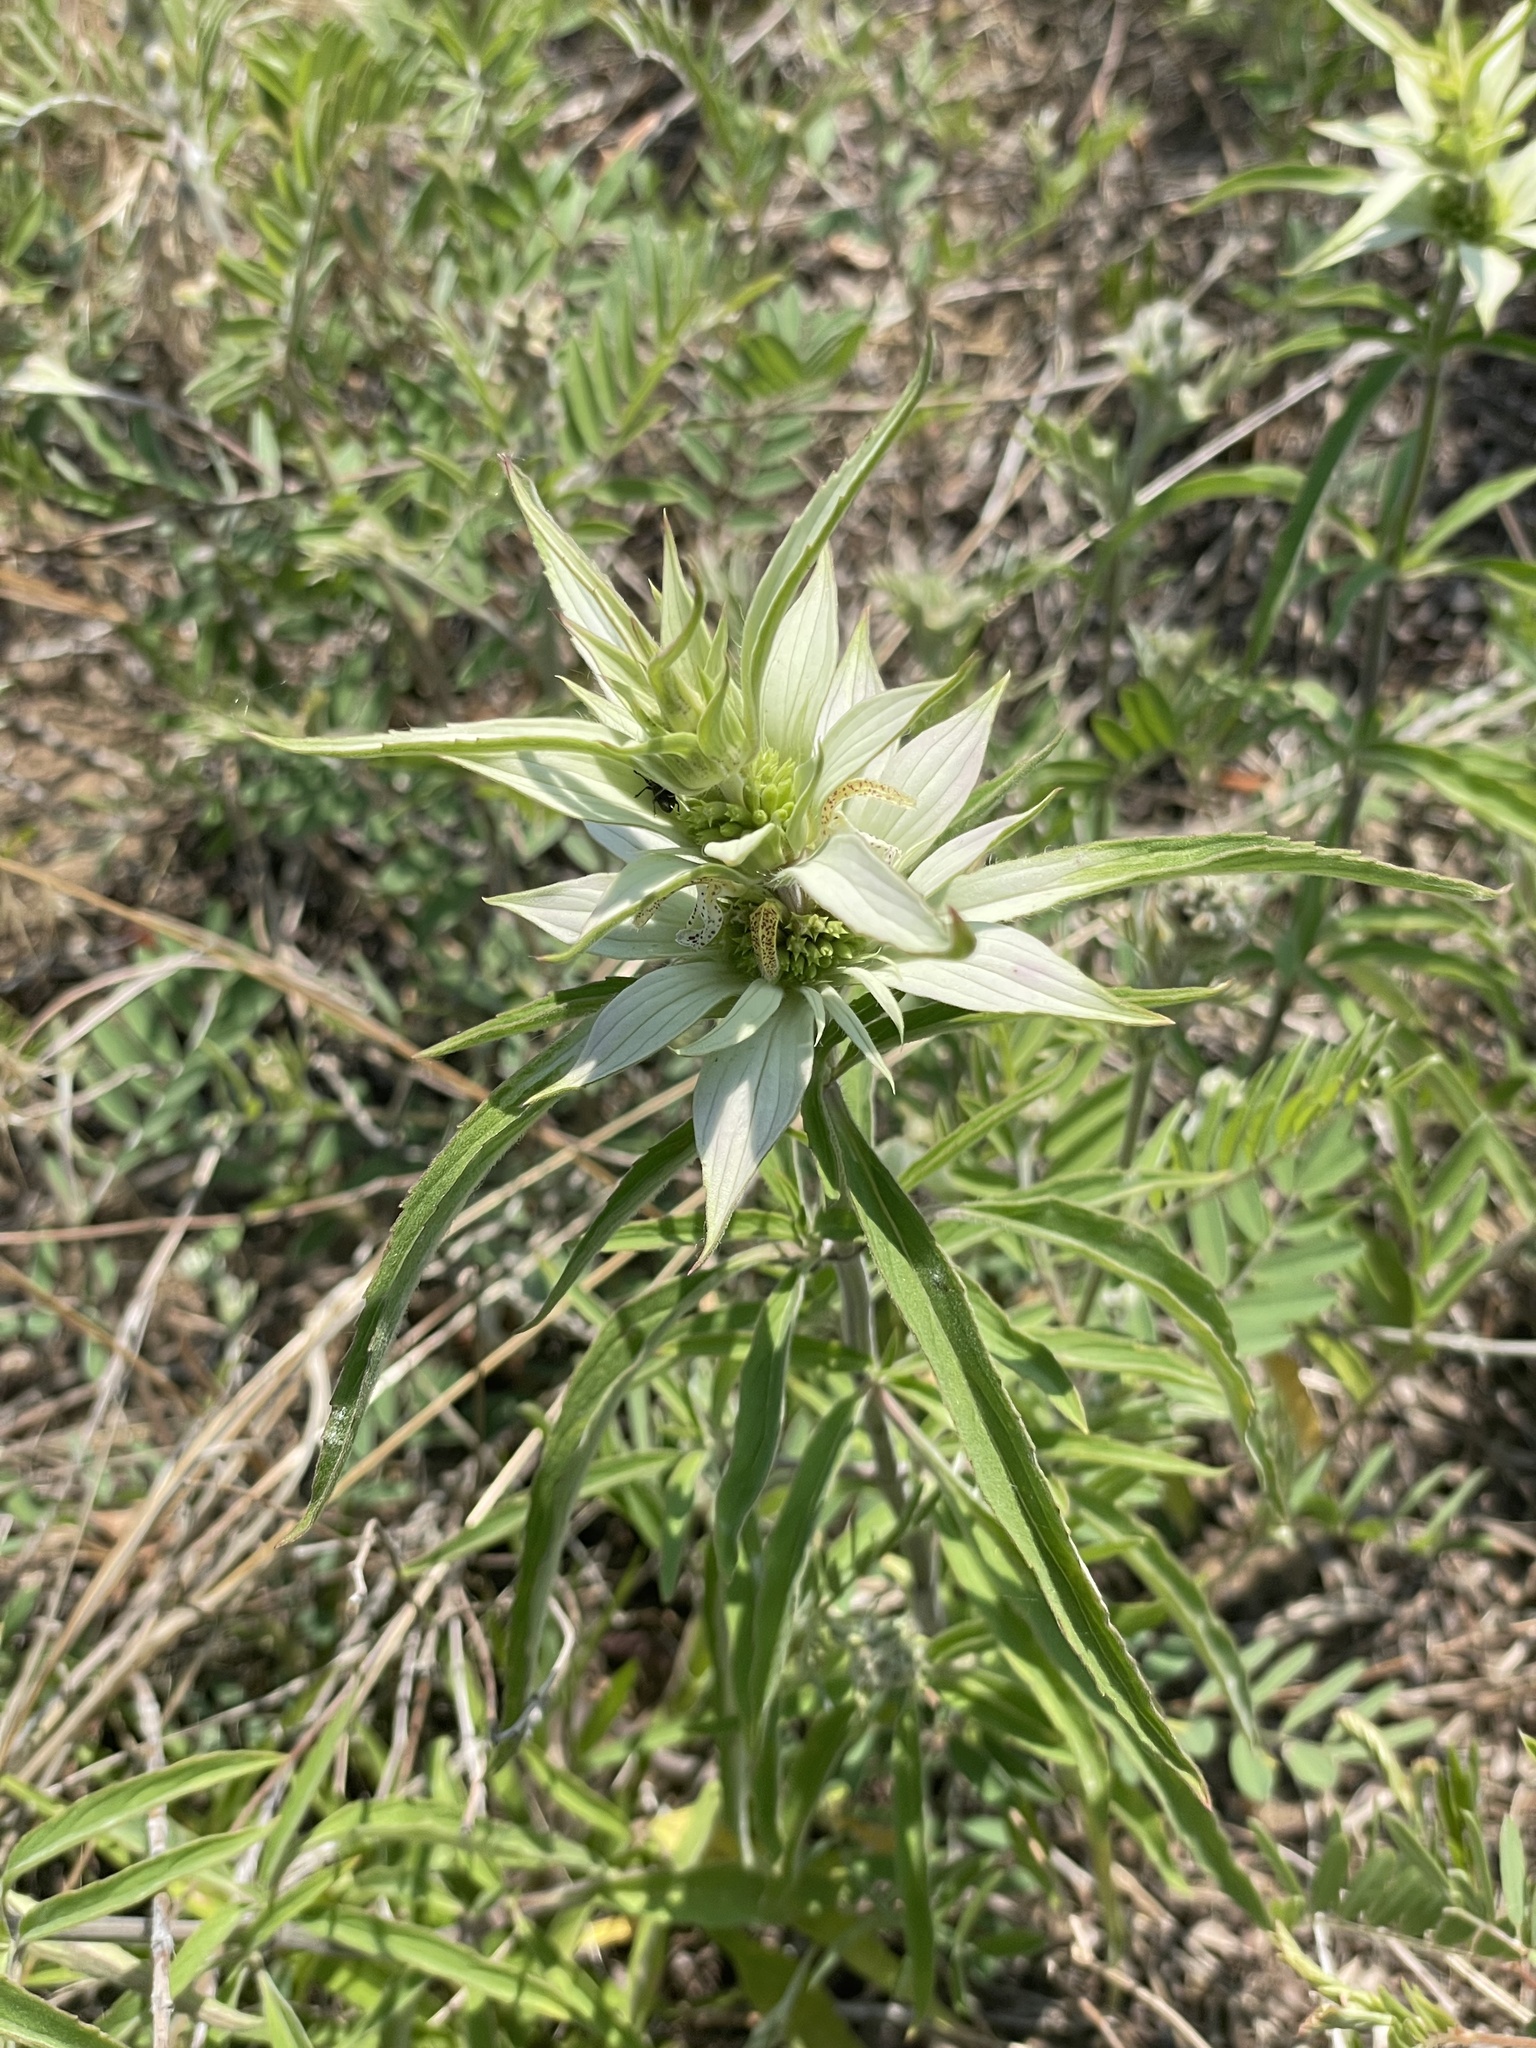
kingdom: Plantae
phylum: Tracheophyta
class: Magnoliopsida
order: Lamiales
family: Lamiaceae
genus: Monarda
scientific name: Monarda punctata
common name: Dotted monarda
